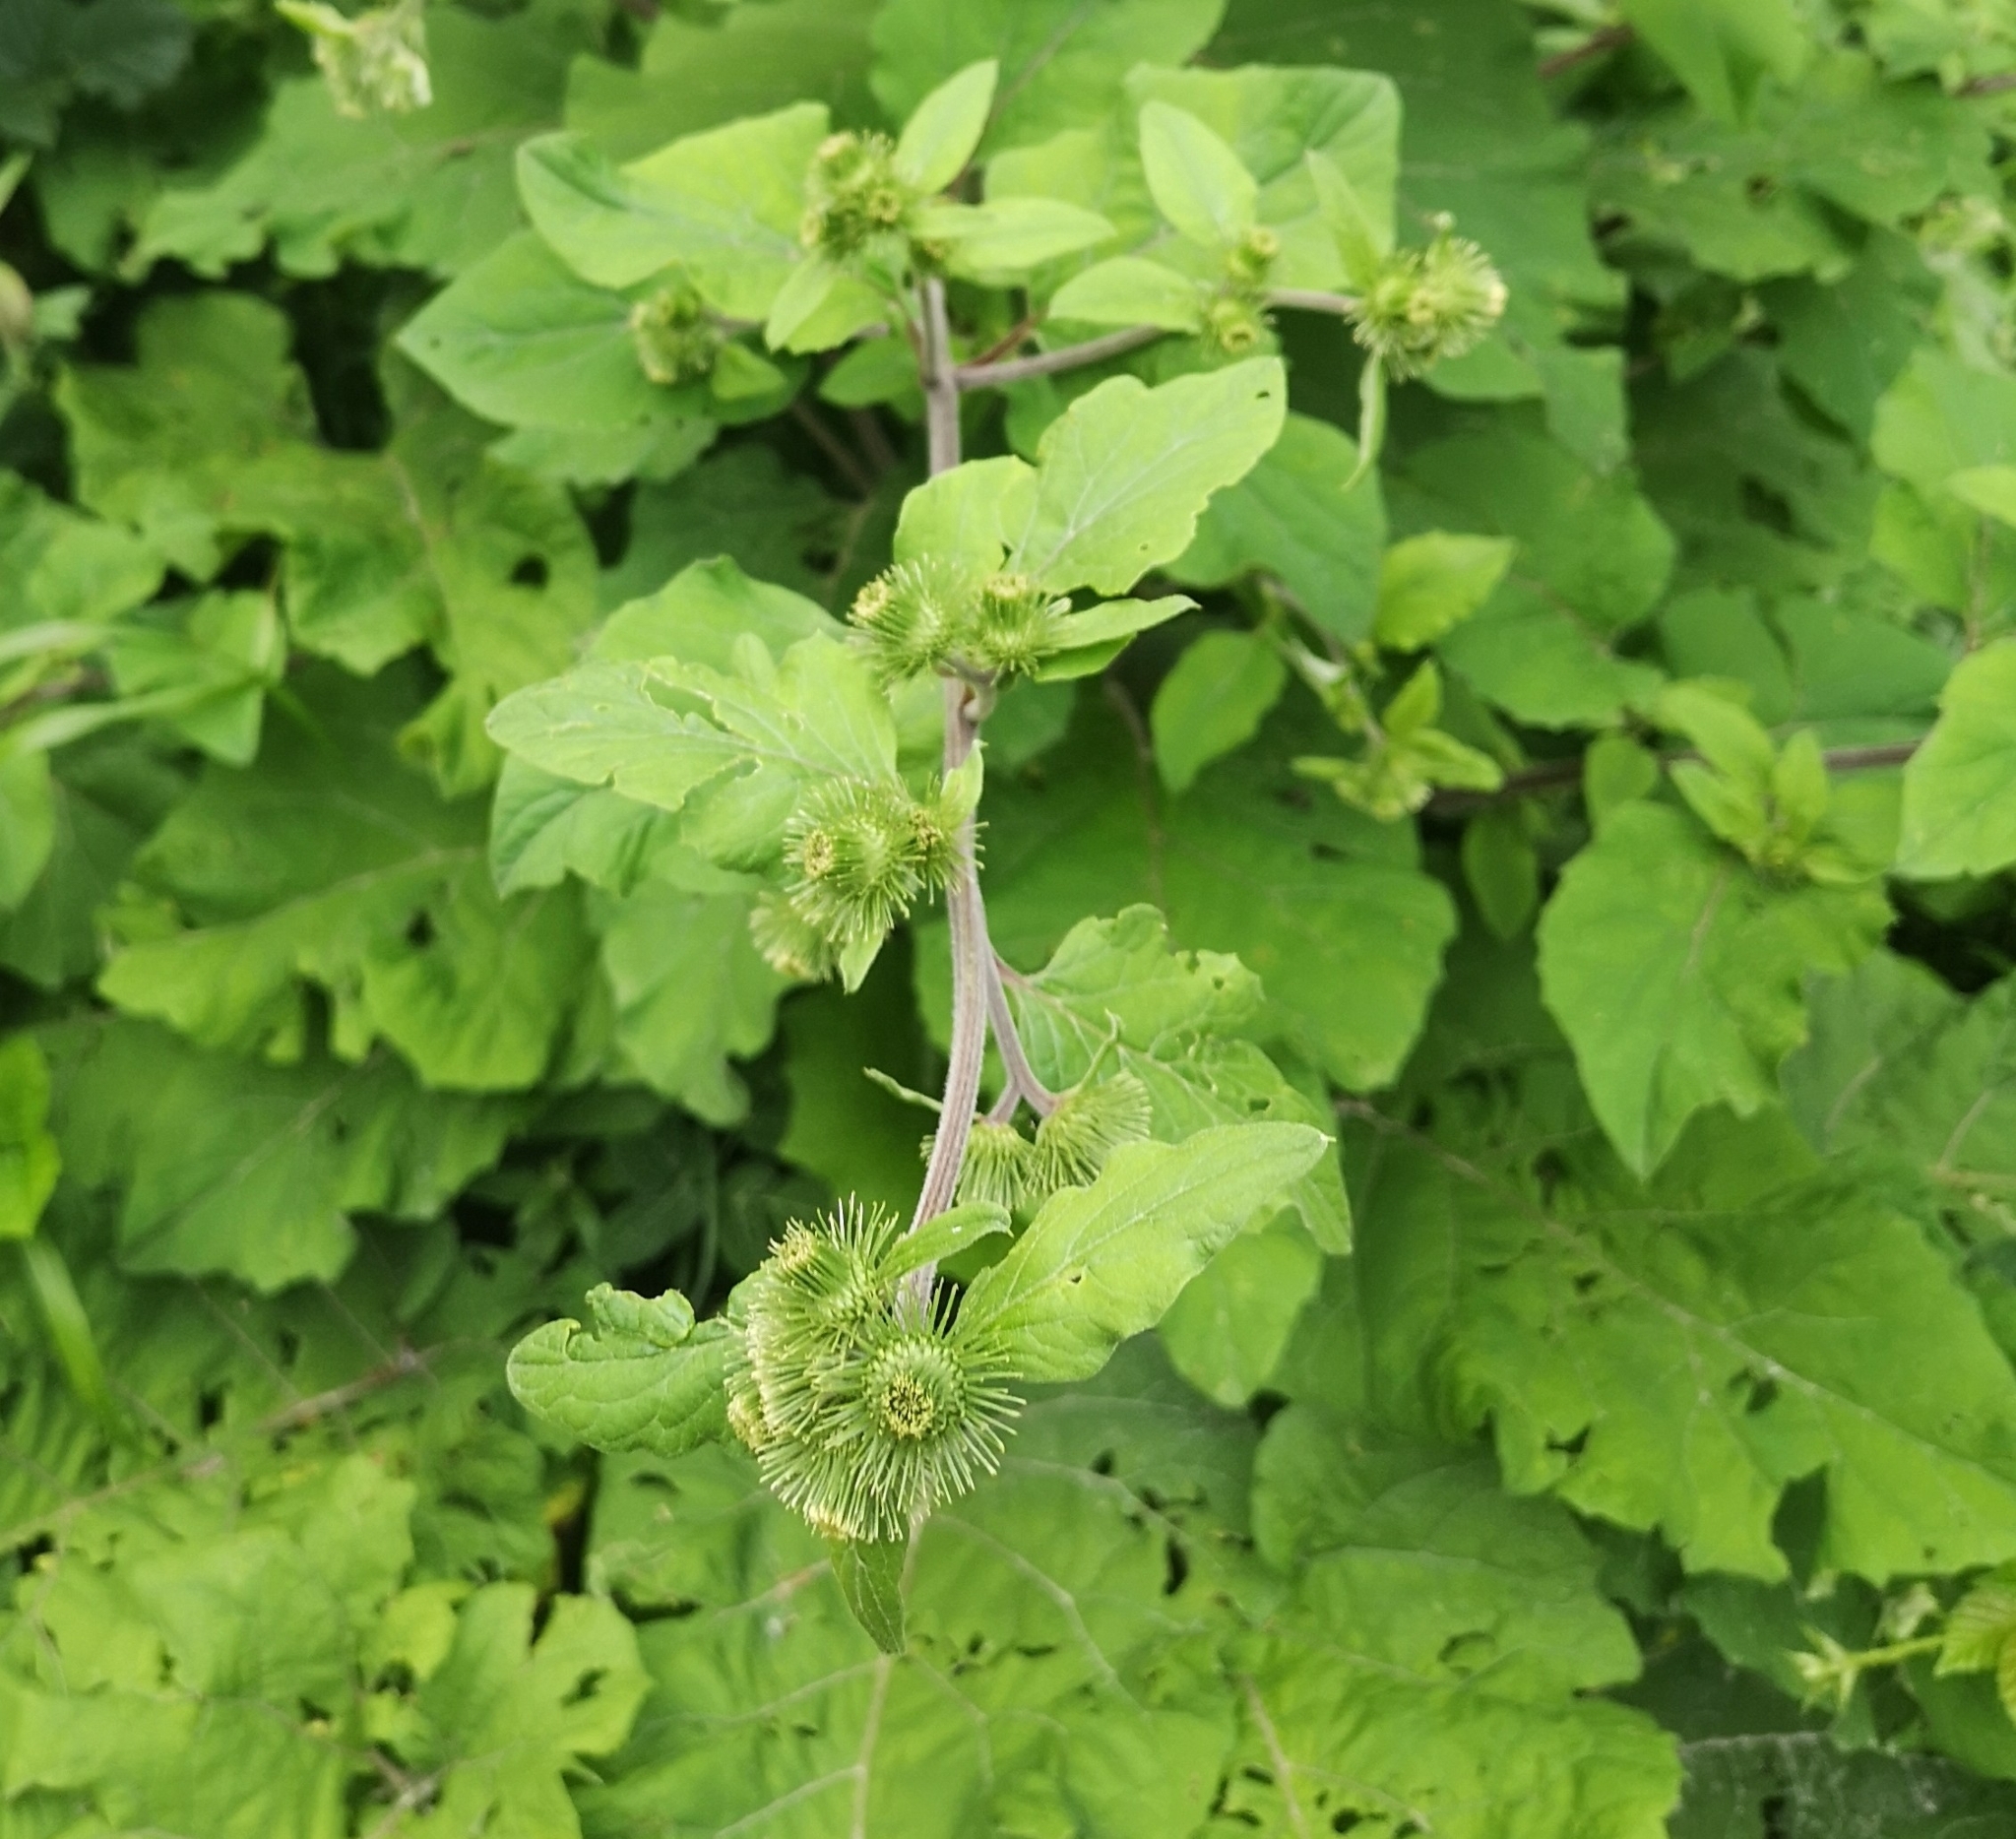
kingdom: Plantae
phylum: Tracheophyta
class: Magnoliopsida
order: Asterales
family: Asteraceae
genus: Arctium
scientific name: Arctium lappa
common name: Greater burdock
